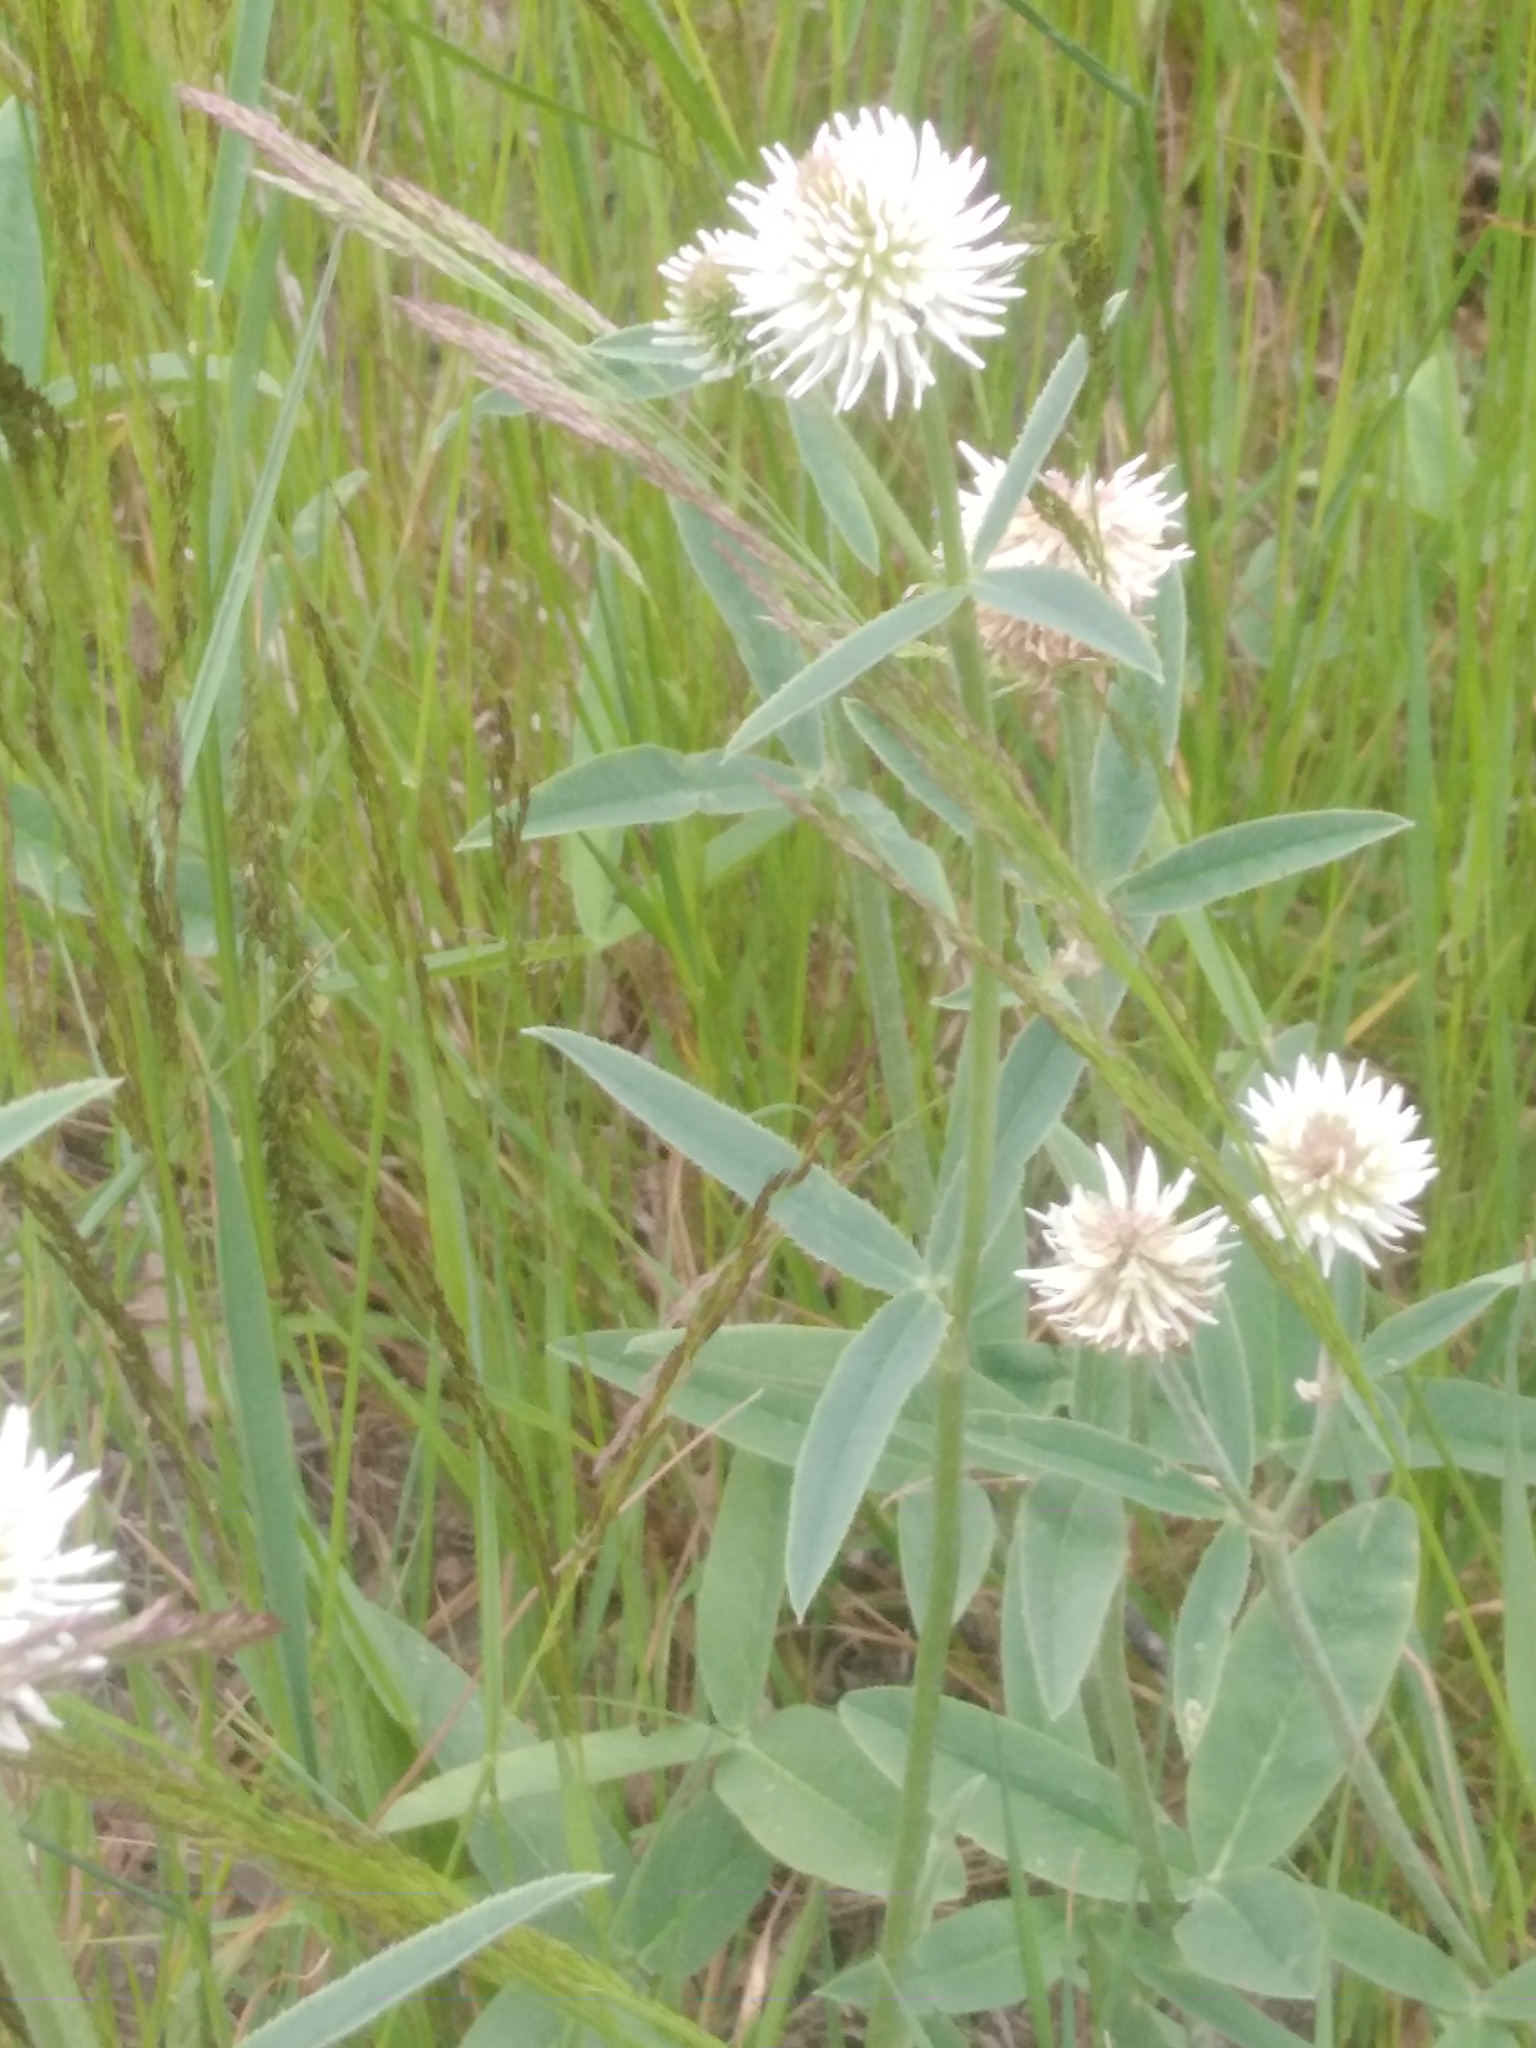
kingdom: Plantae
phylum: Tracheophyta
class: Magnoliopsida
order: Fabales
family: Fabaceae
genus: Trifolium
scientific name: Trifolium montanum
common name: Mountain clover
